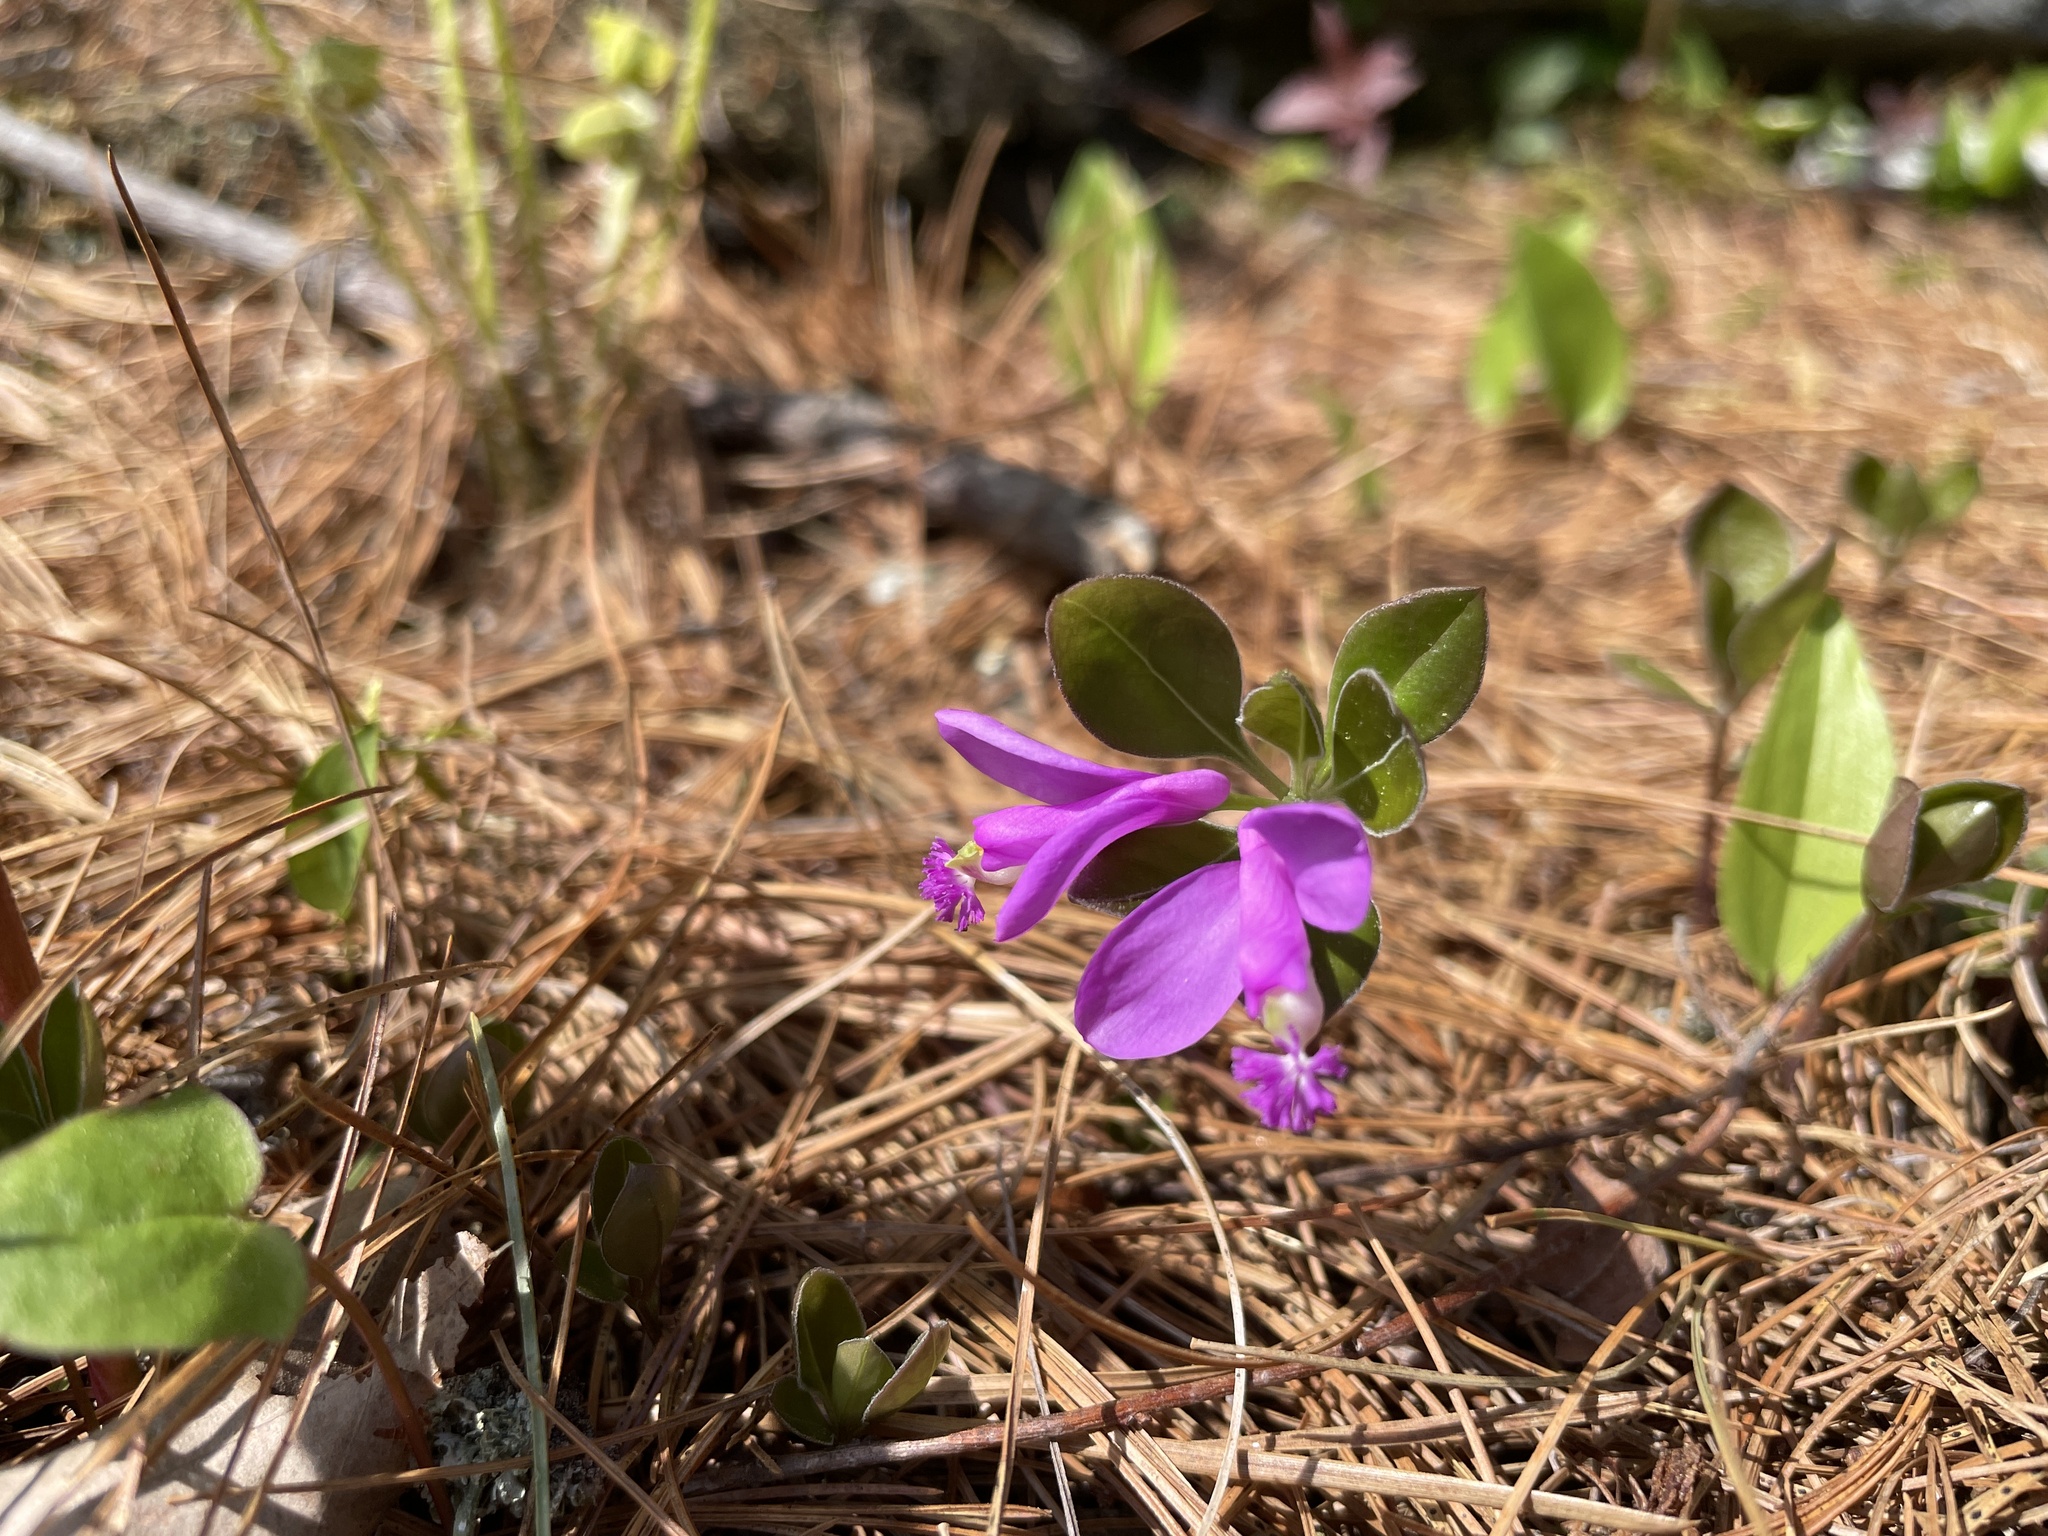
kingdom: Plantae
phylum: Tracheophyta
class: Magnoliopsida
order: Fabales
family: Polygalaceae
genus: Polygaloides
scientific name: Polygaloides paucifolia
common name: Bird-on-the-wing
